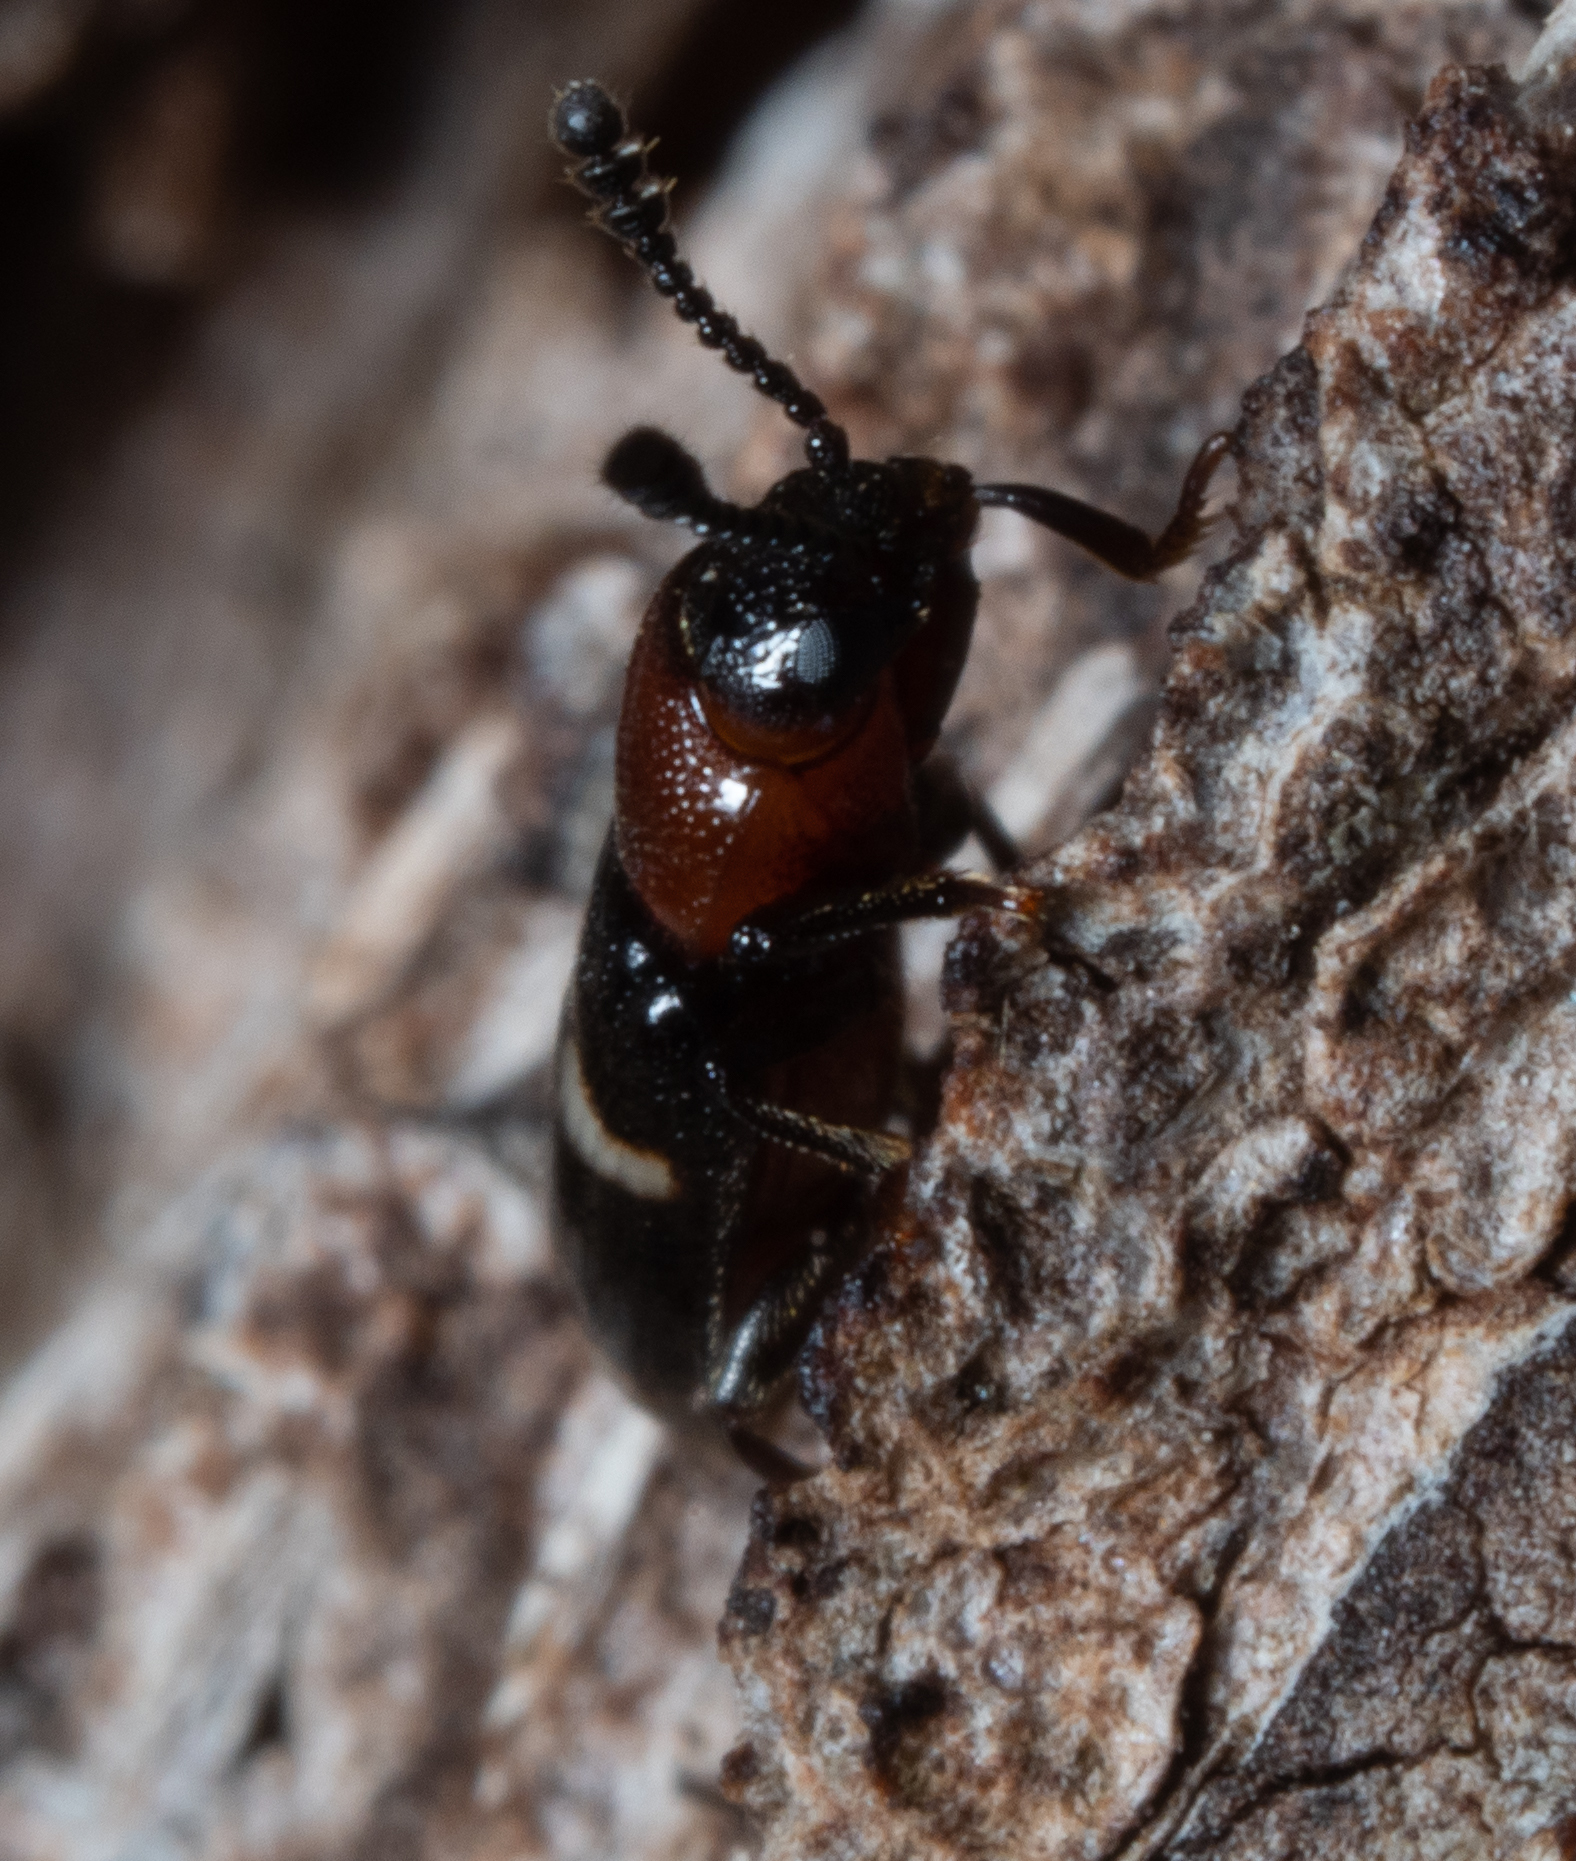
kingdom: Animalia
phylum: Arthropoda
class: Insecta
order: Coleoptera
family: Erotylidae
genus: Thallis
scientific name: Thallis
